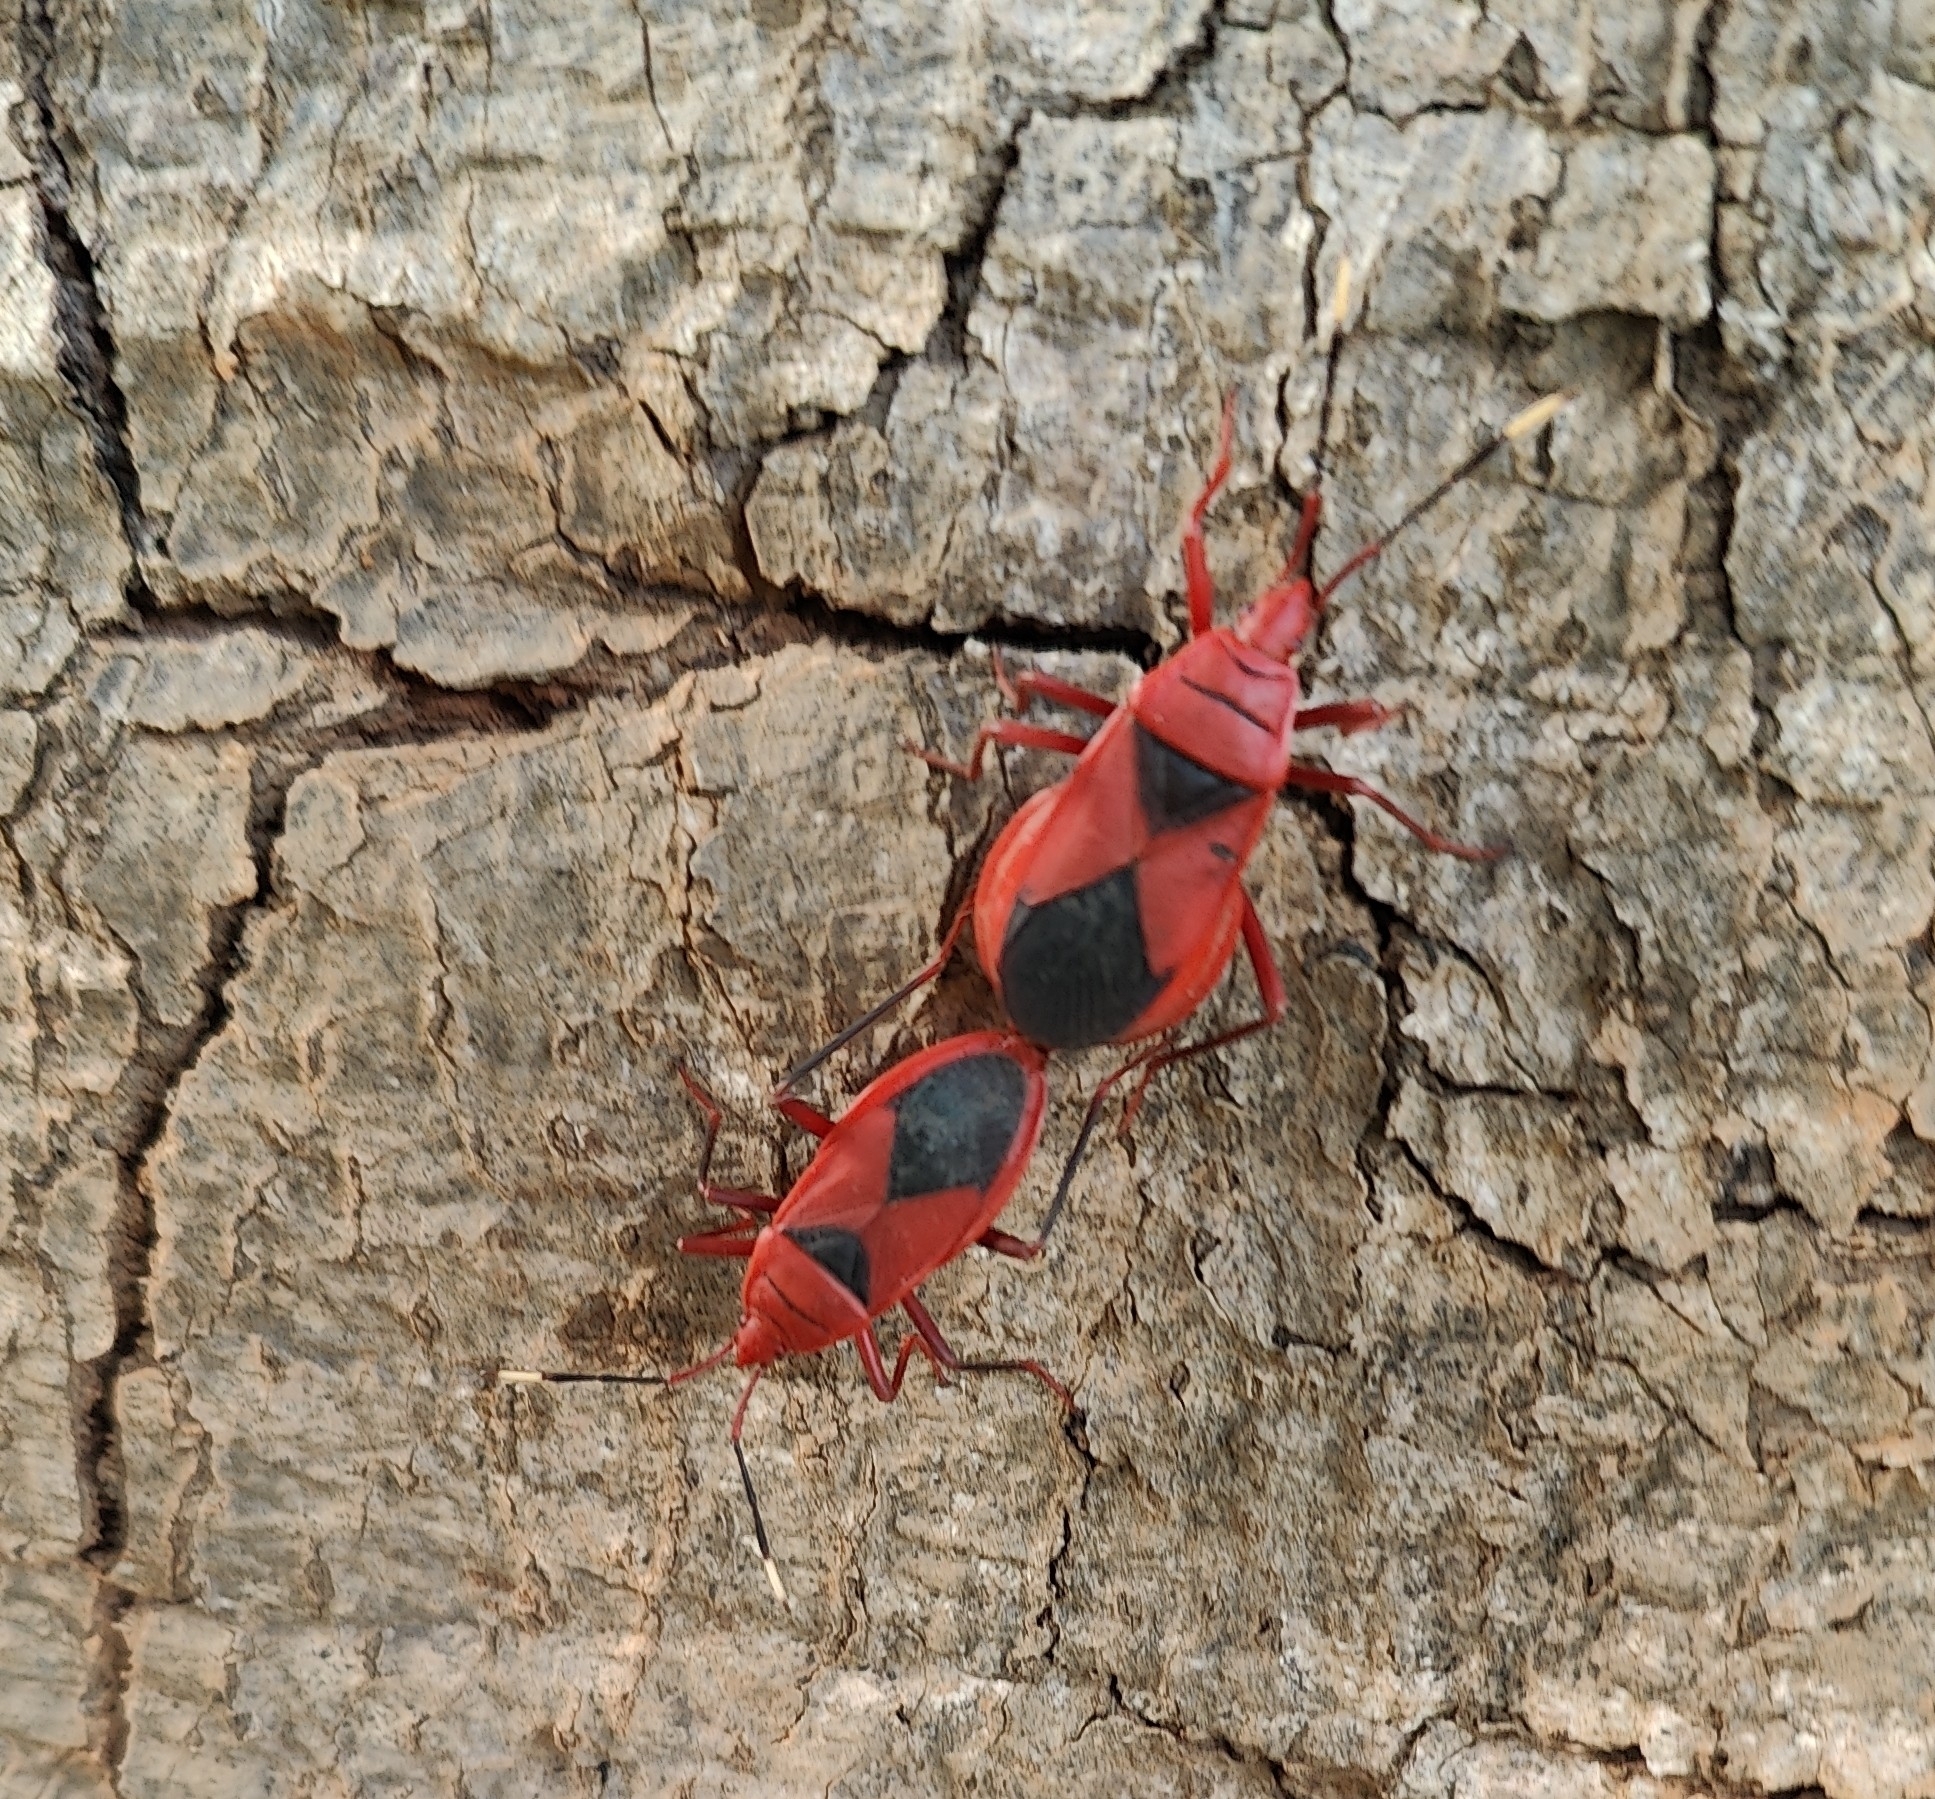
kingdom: Animalia
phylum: Arthropoda
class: Insecta
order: Hemiptera
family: Pyrrhocoridae
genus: Probergrothius
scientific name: Probergrothius
